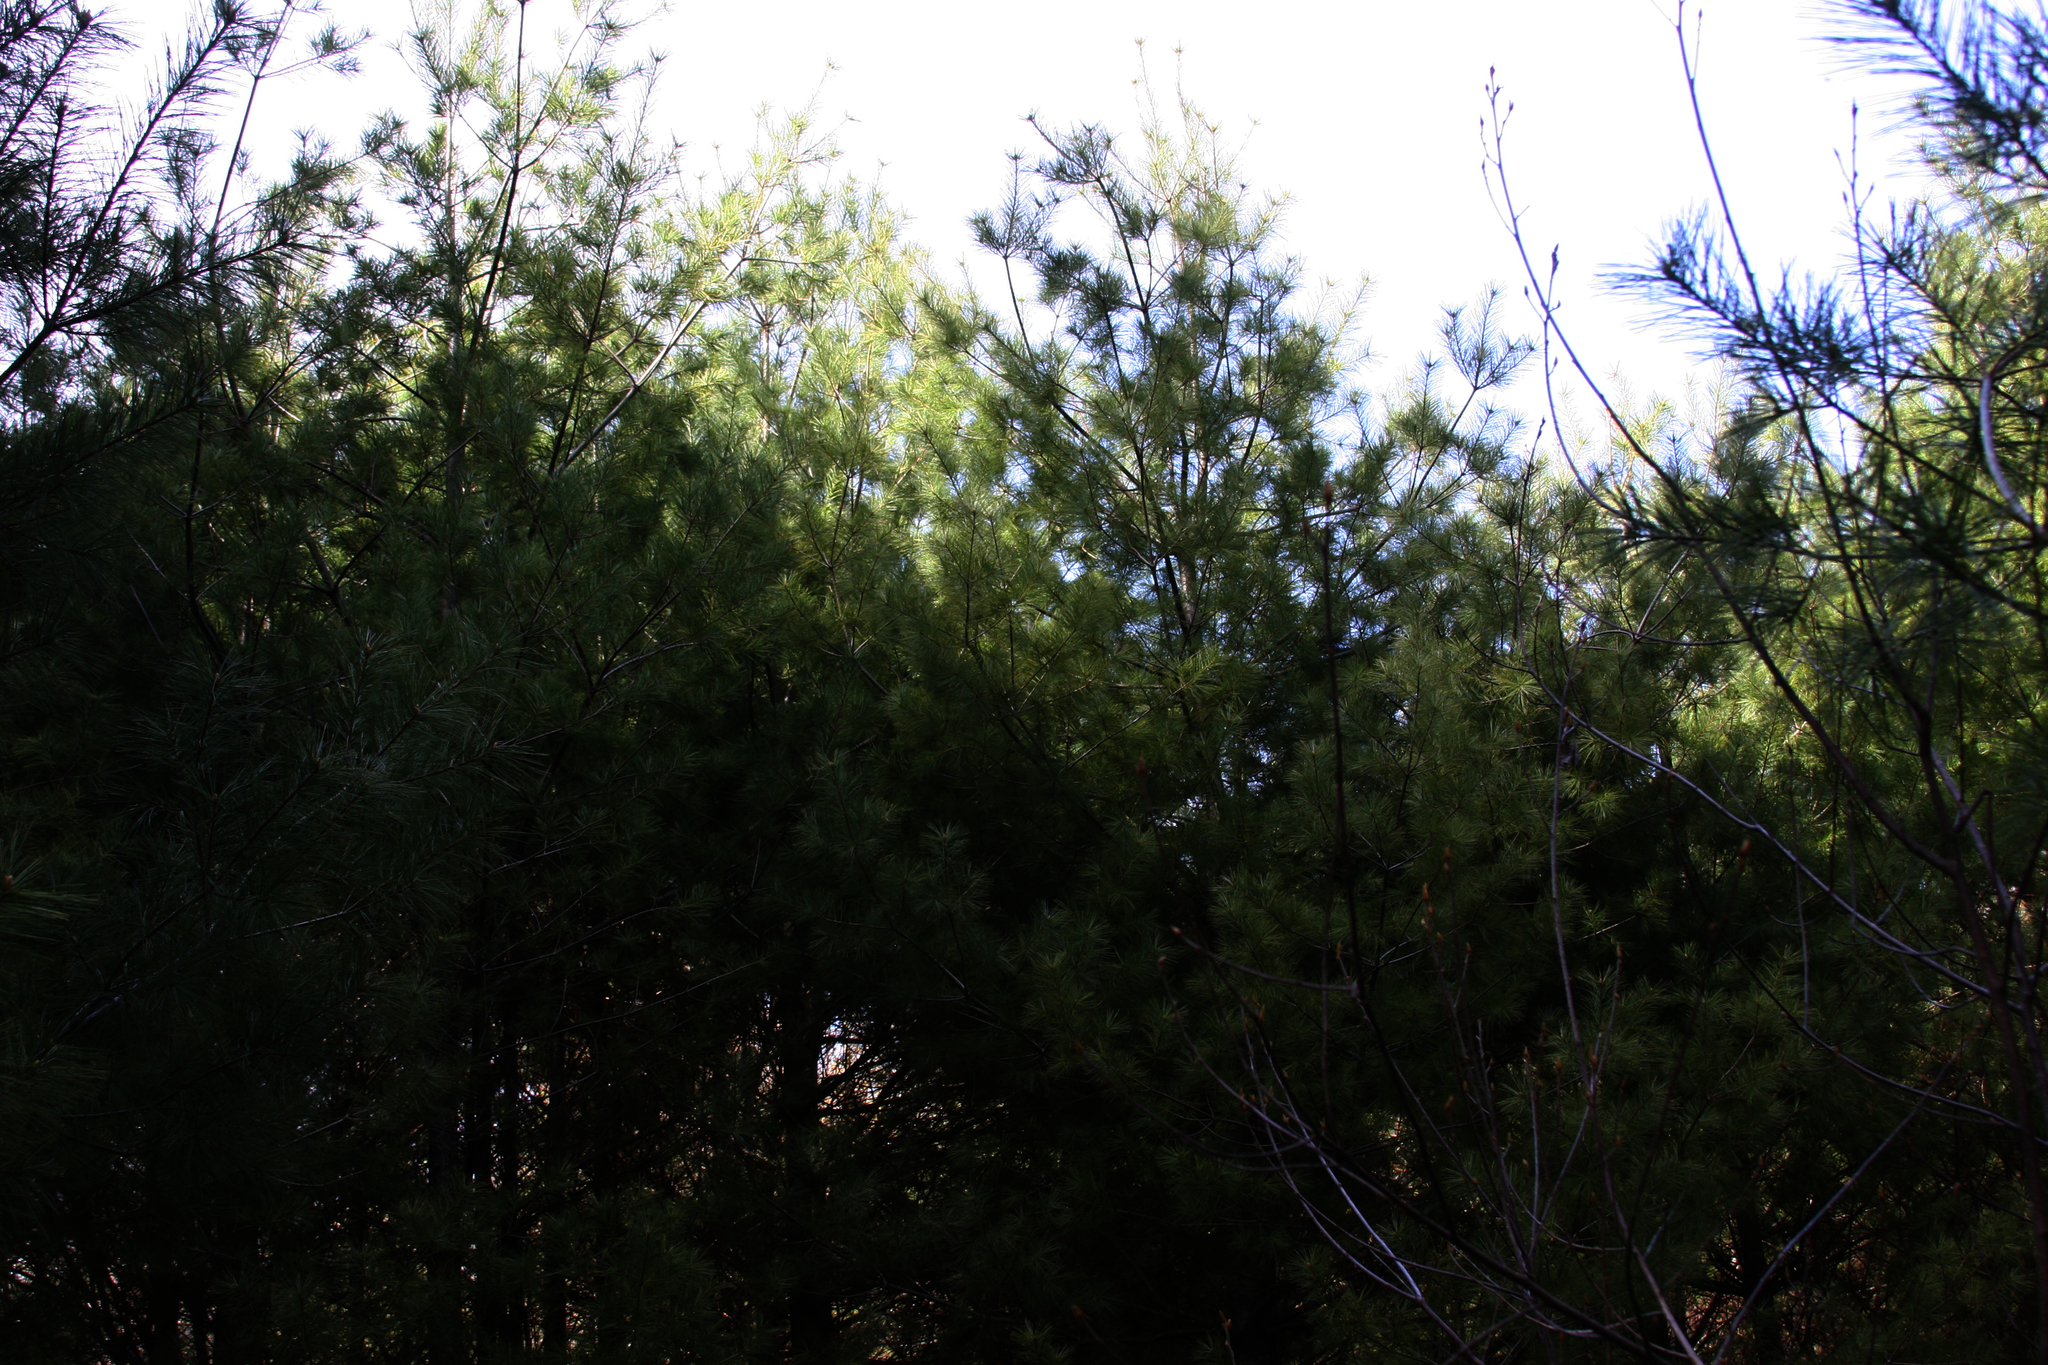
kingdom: Plantae
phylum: Tracheophyta
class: Pinopsida
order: Pinales
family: Pinaceae
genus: Pinus
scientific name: Pinus strobus
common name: Weymouth pine
